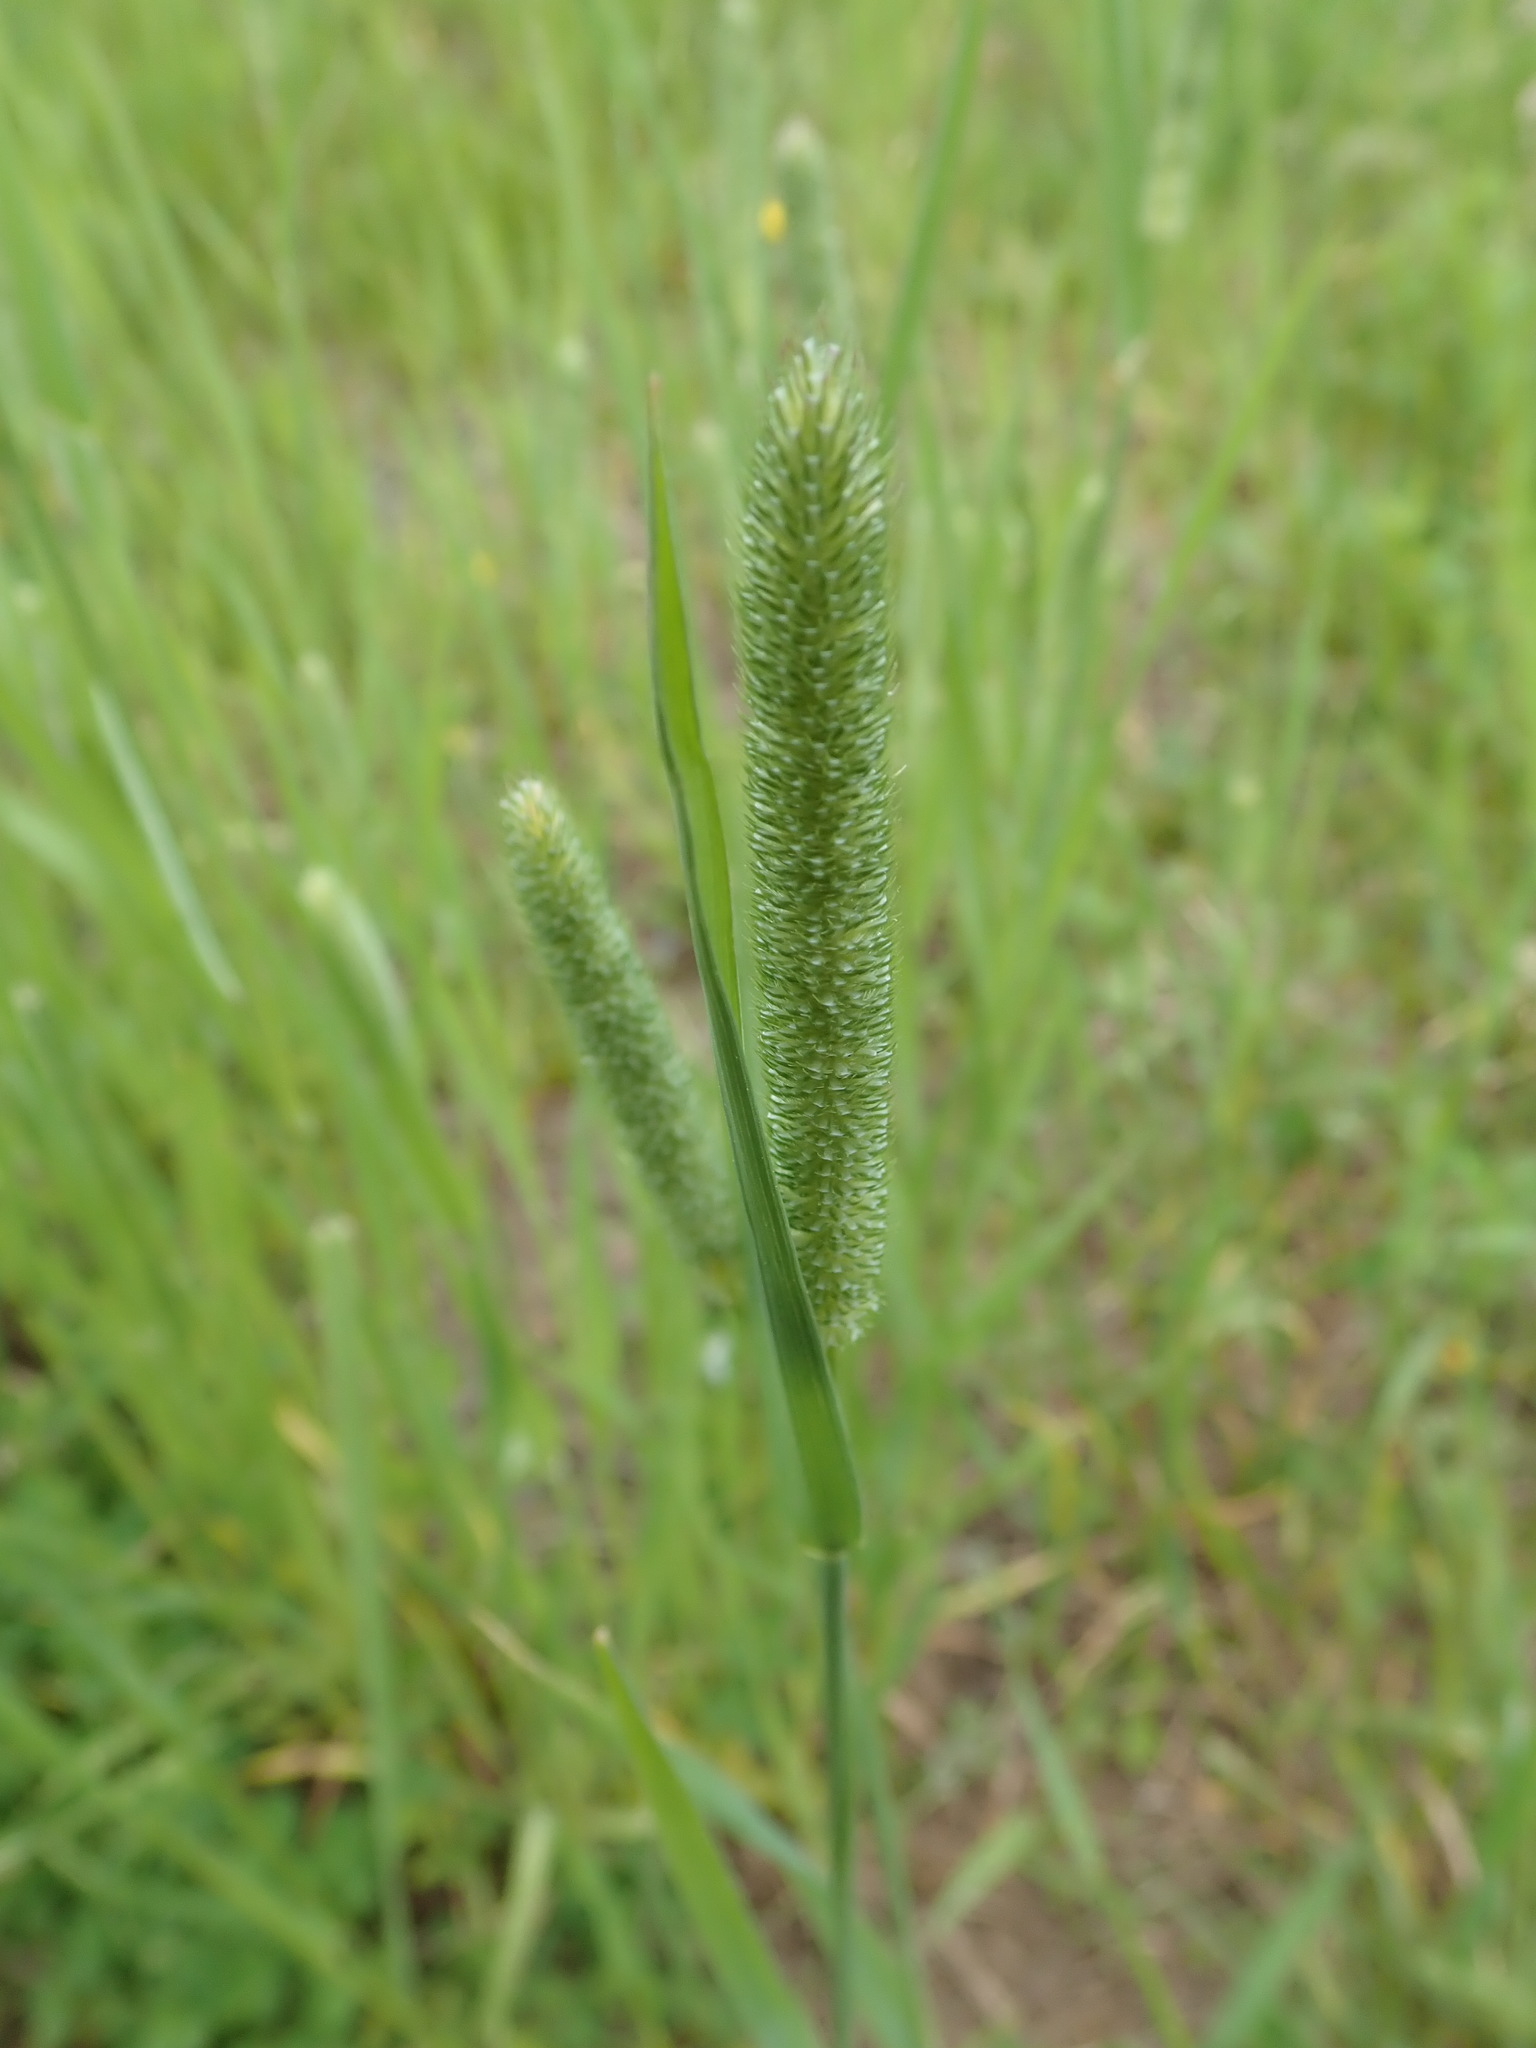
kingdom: Plantae
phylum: Tracheophyta
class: Liliopsida
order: Poales
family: Poaceae
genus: Phleum
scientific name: Phleum pratense
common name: Timothy grass
